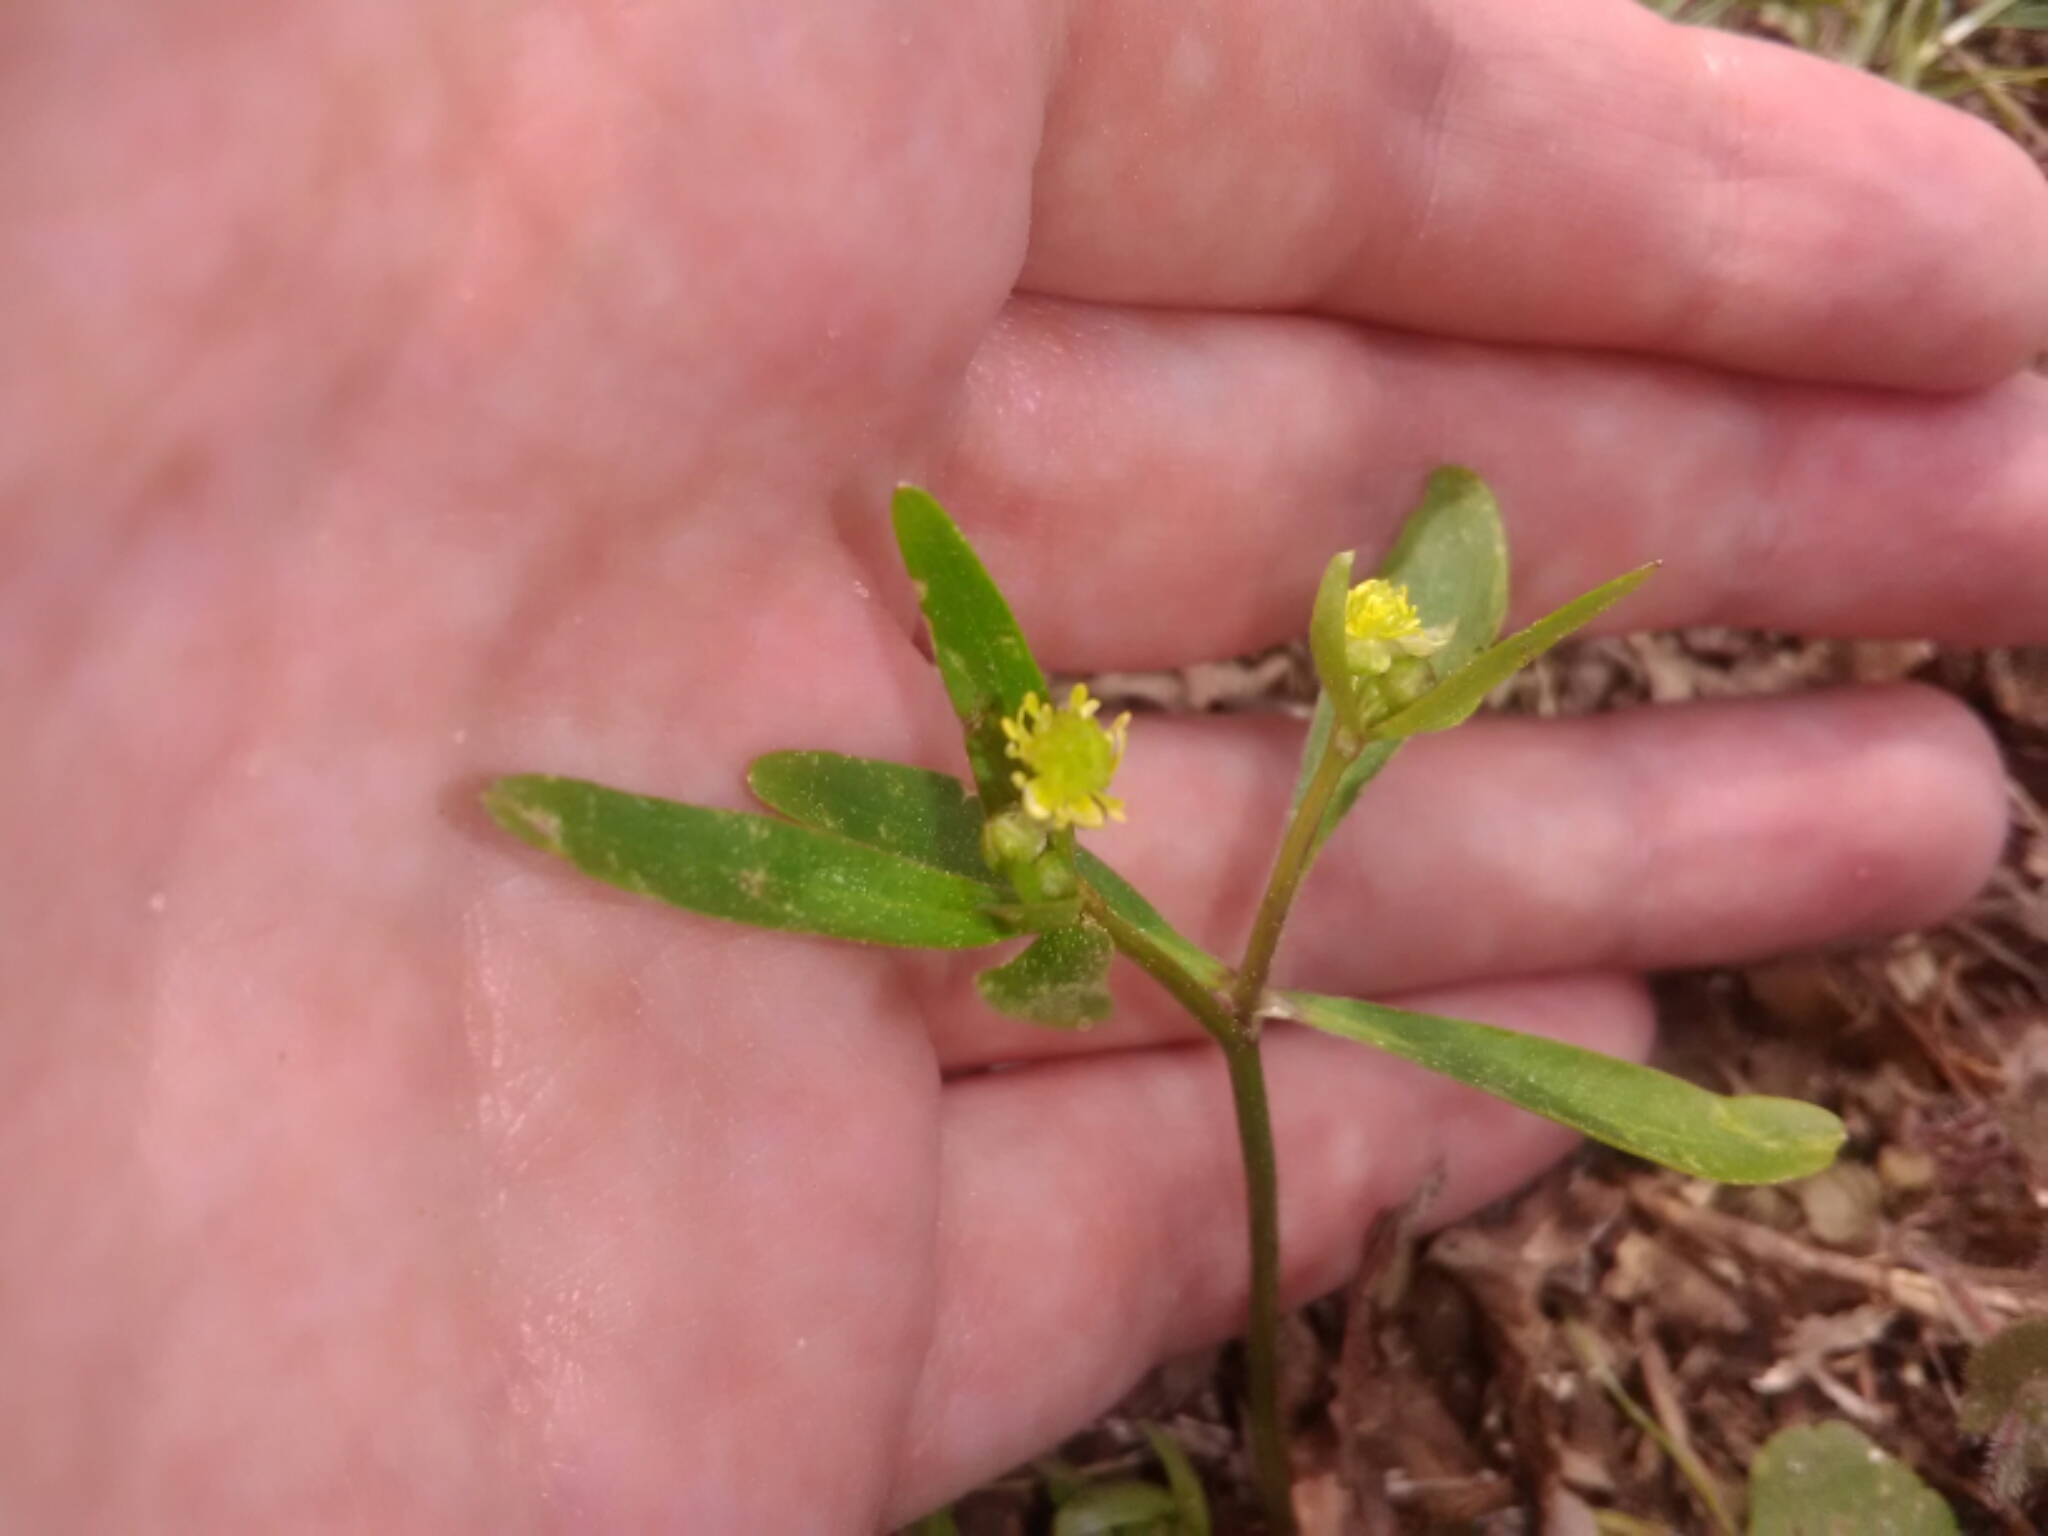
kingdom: Plantae
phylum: Tracheophyta
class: Magnoliopsida
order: Ranunculales
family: Ranunculaceae
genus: Ranunculus
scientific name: Ranunculus abortivus
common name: Early wood buttercup
